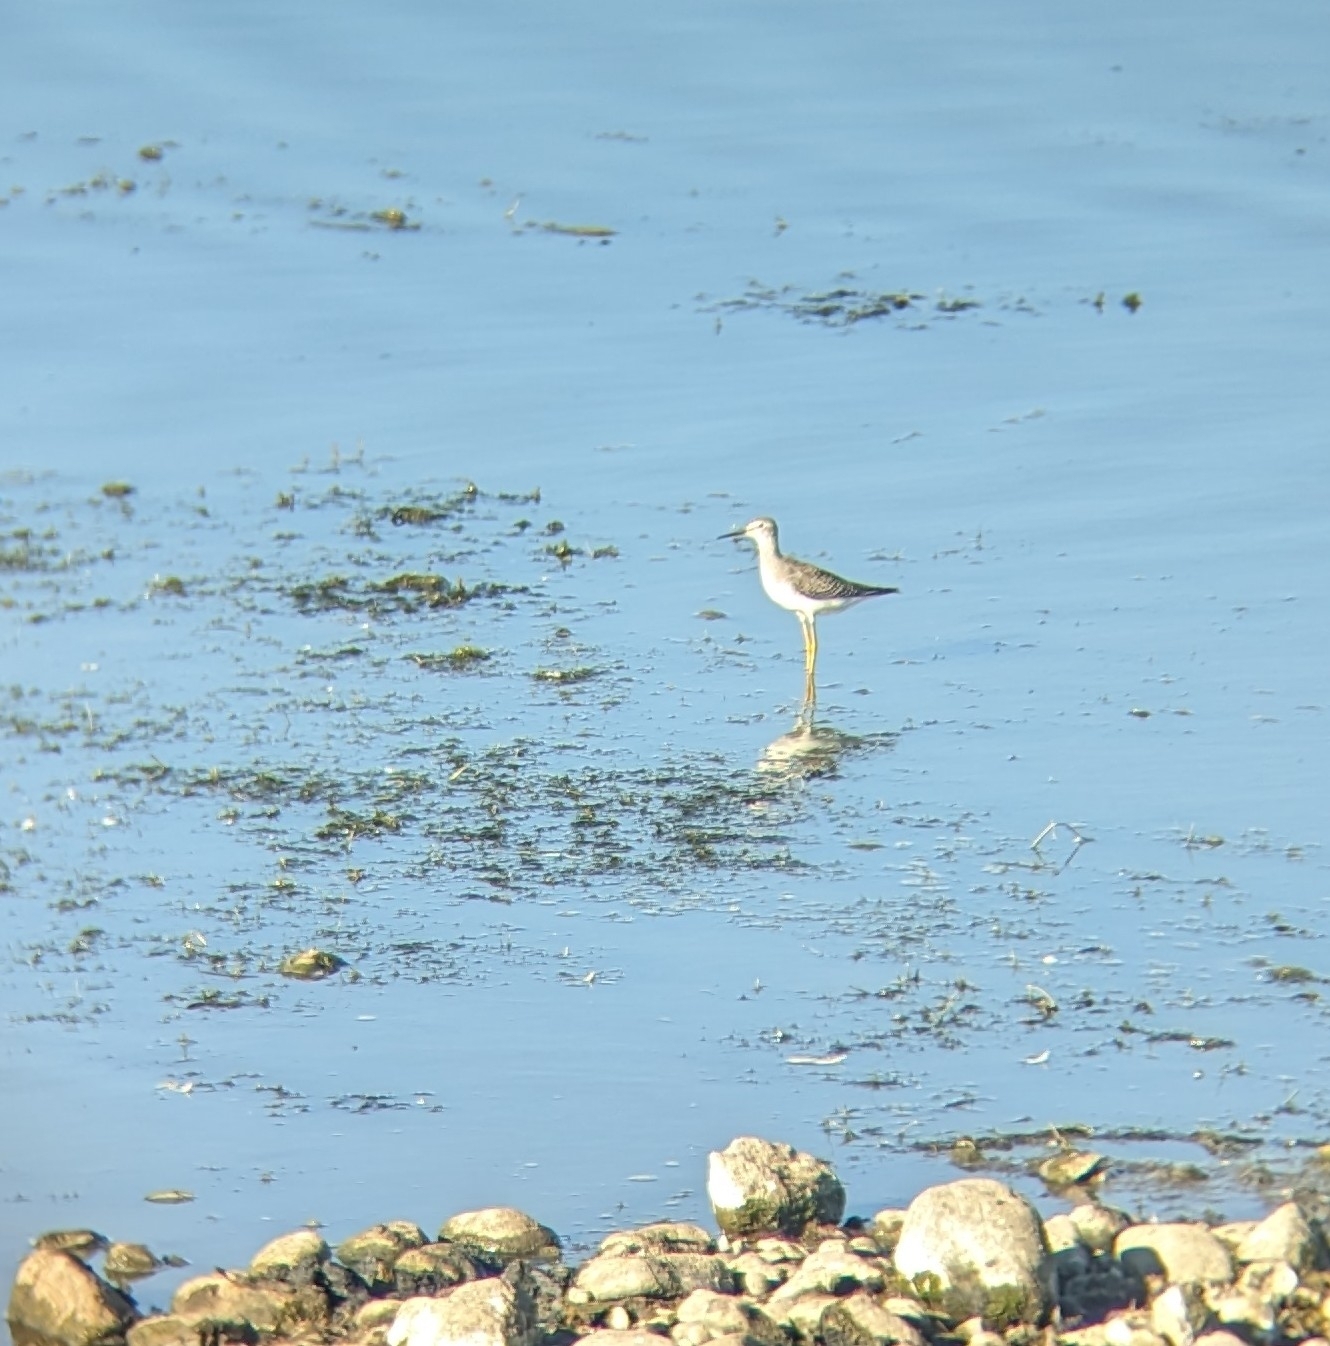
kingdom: Animalia
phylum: Chordata
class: Aves
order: Charadriiformes
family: Scolopacidae
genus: Tringa
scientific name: Tringa flavipes
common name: Lesser yellowlegs
